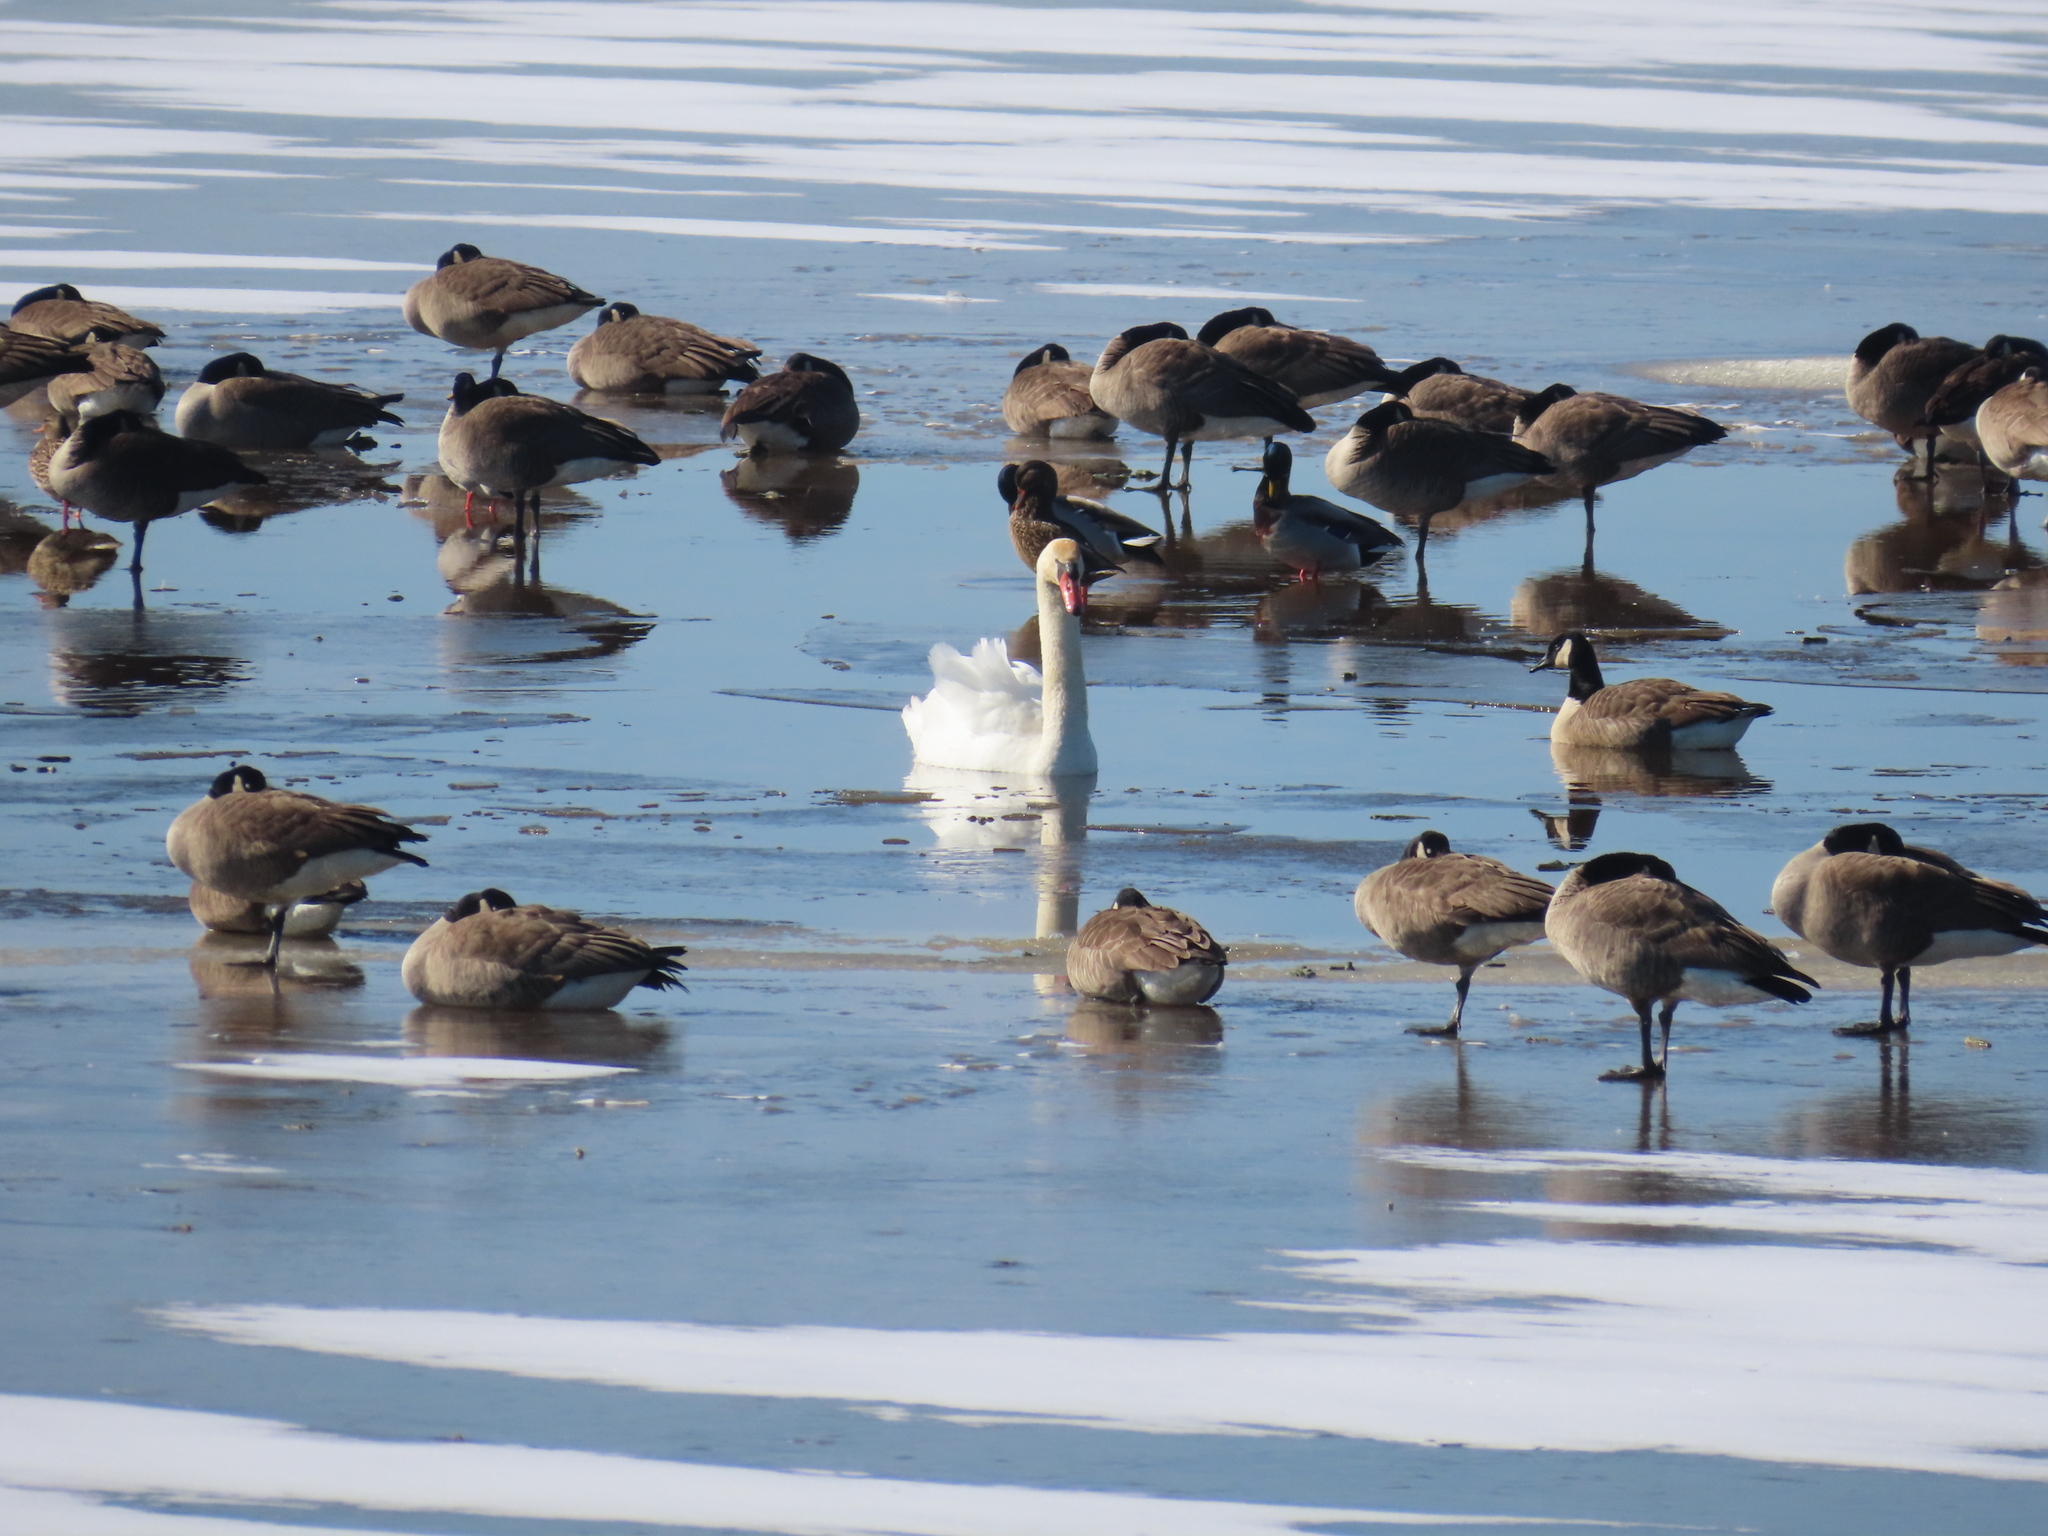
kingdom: Animalia
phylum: Chordata
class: Aves
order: Anseriformes
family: Anatidae
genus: Anas
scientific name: Anas platyrhynchos
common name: Mallard
